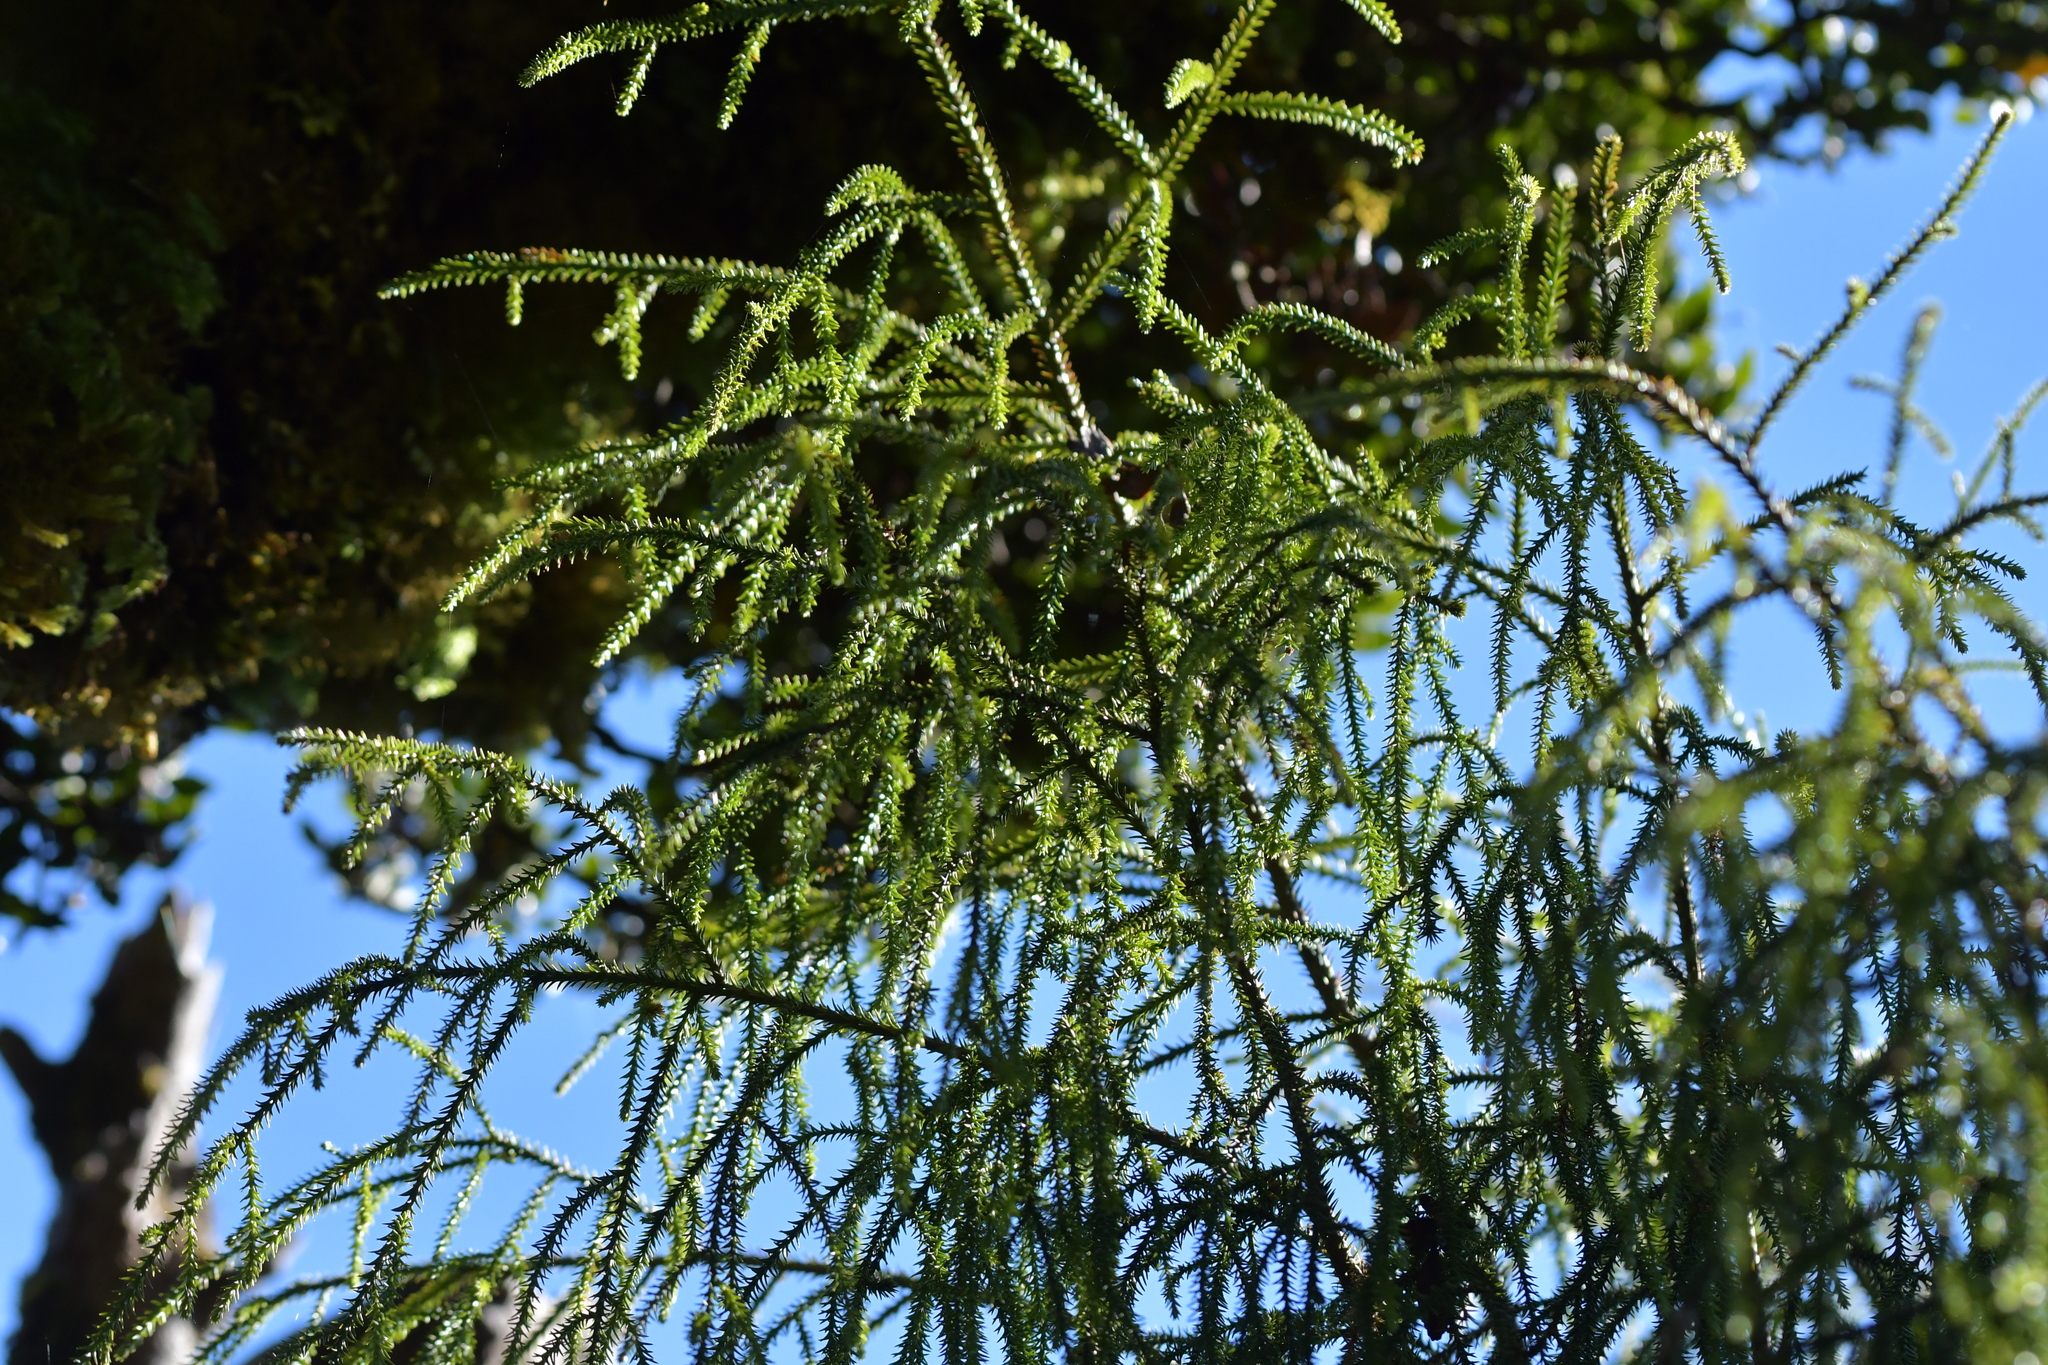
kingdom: Plantae
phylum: Tracheophyta
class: Pinopsida
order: Pinales
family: Podocarpaceae
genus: Dacrydium
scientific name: Dacrydium cupressinum
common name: Red pine
